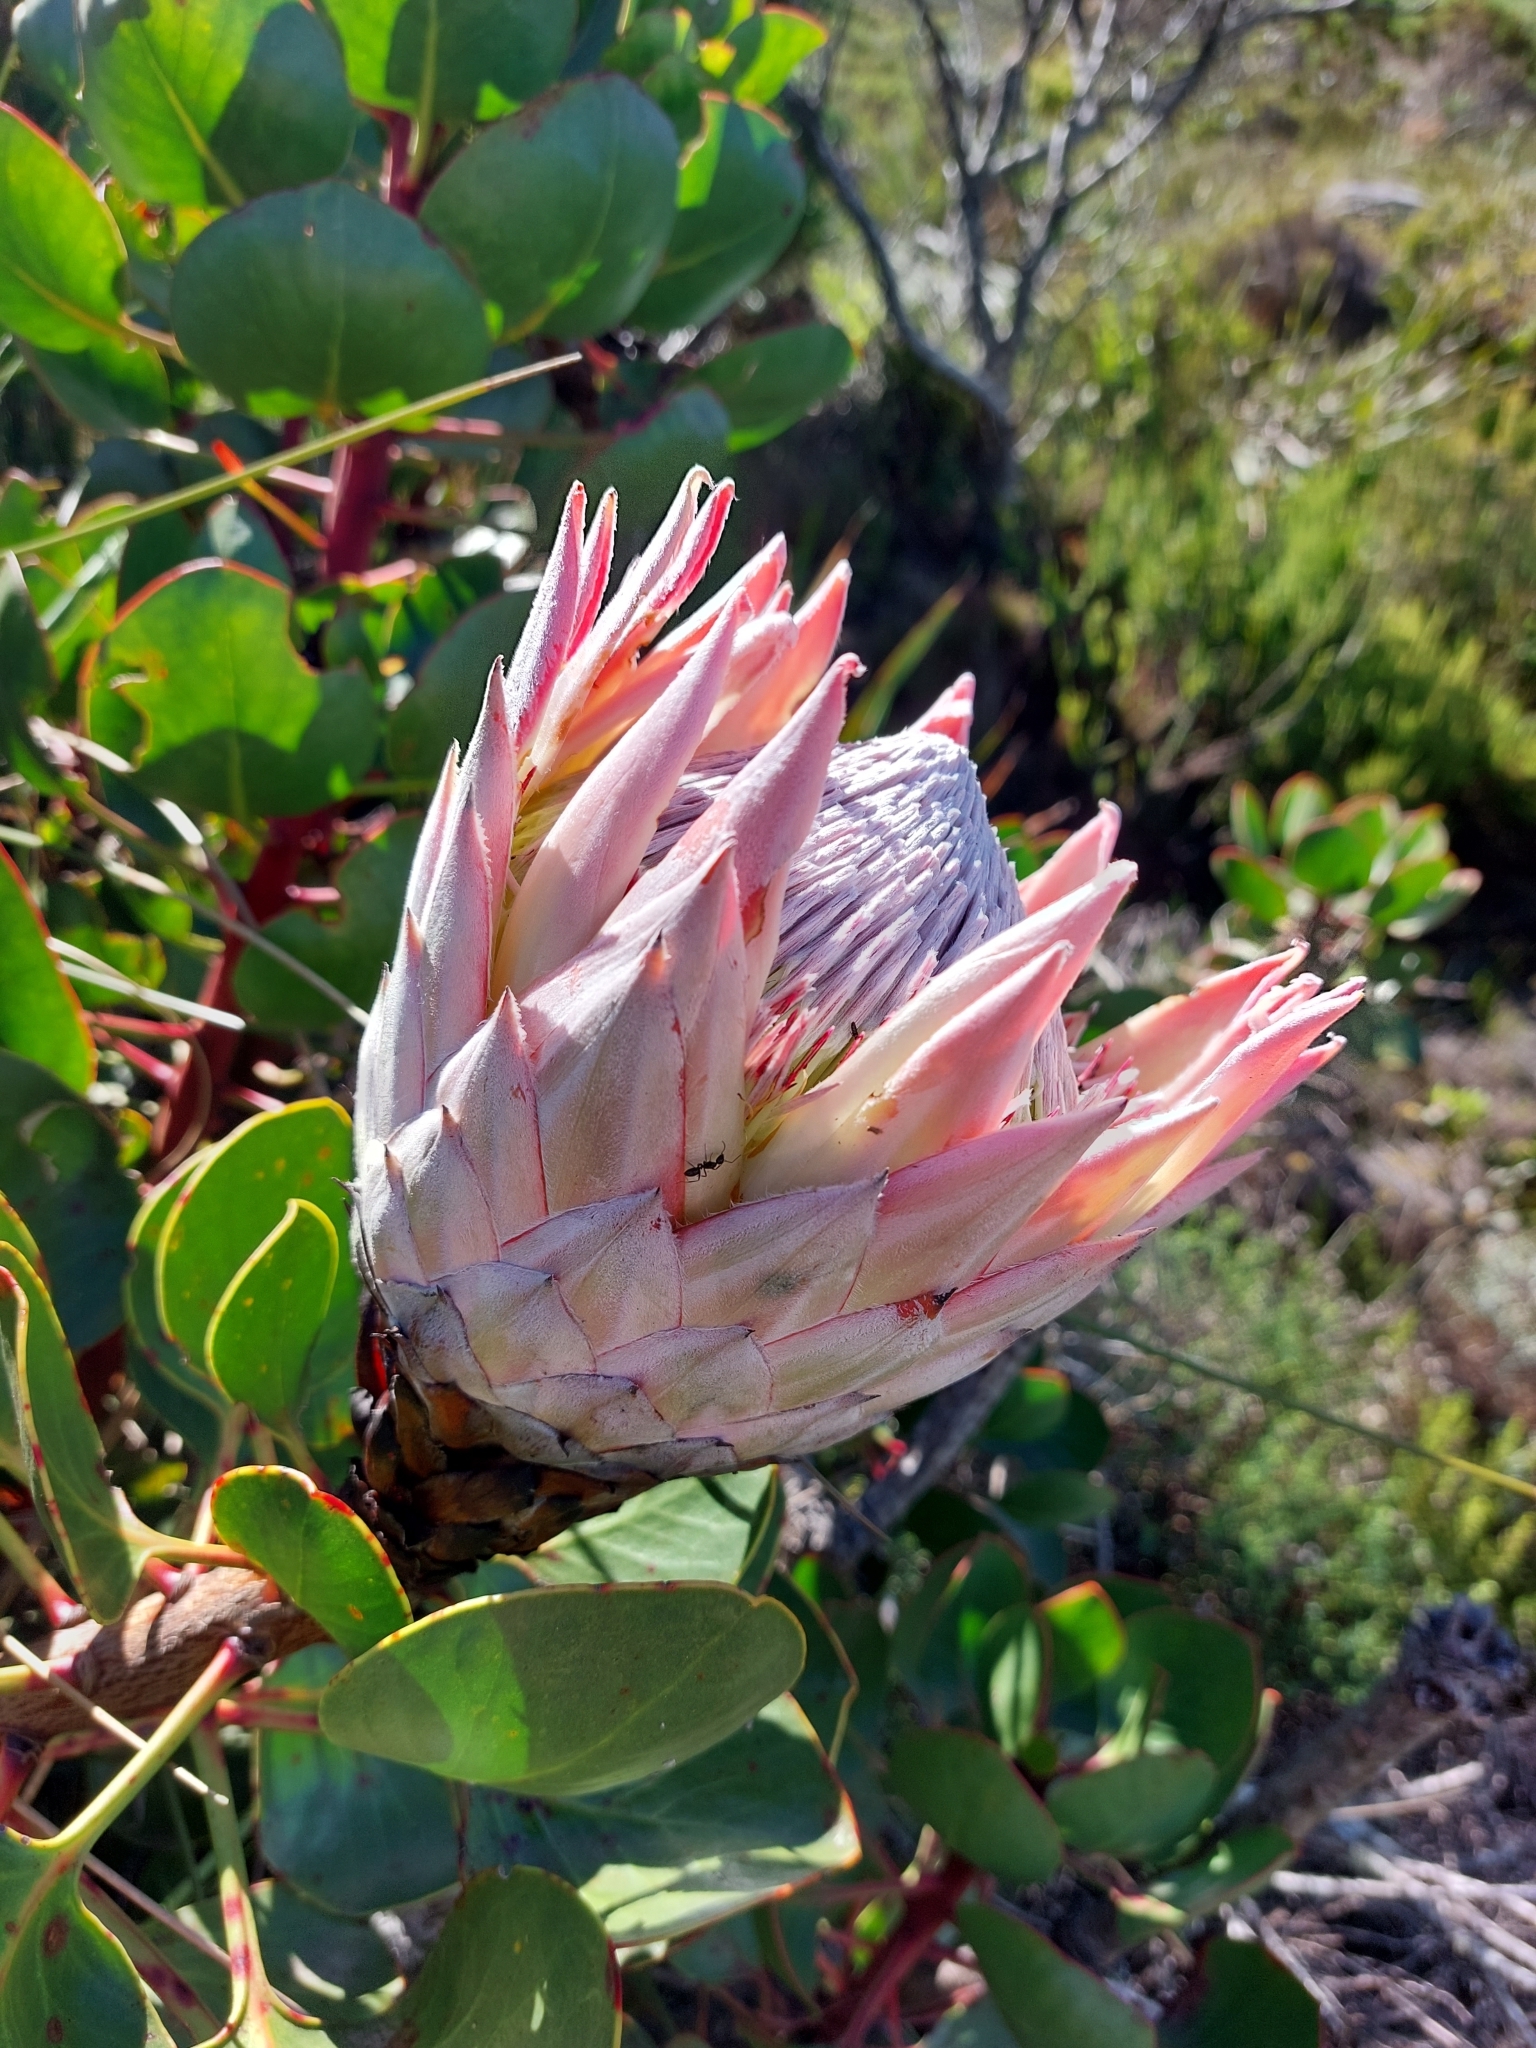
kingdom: Plantae
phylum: Tracheophyta
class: Magnoliopsida
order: Proteales
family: Proteaceae
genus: Protea
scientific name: Protea cynaroides
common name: King protea
